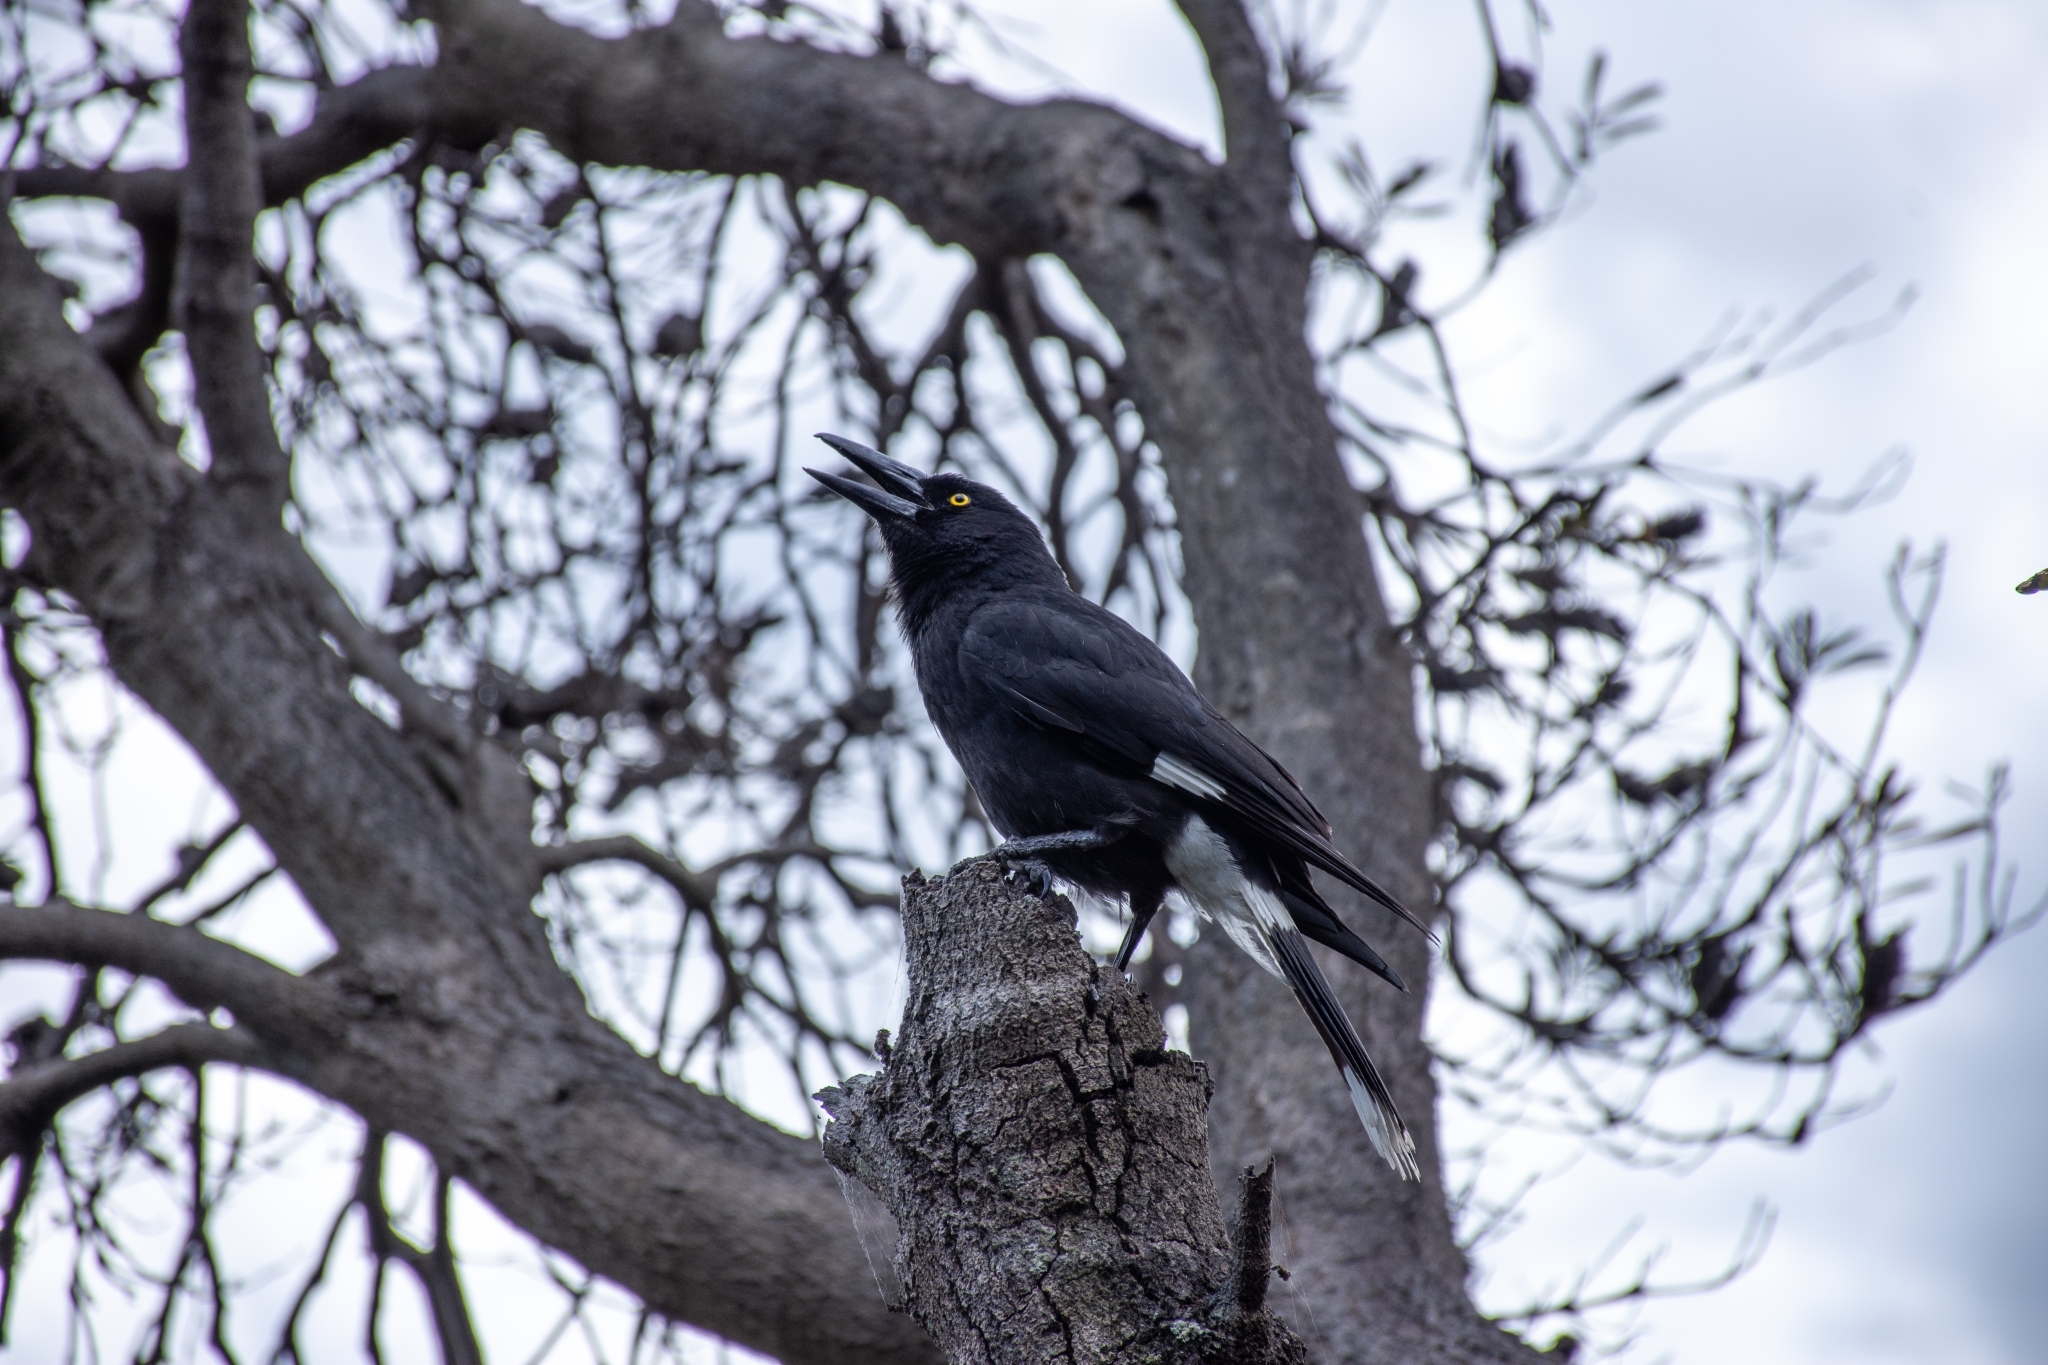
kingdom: Animalia
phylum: Chordata
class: Aves
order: Passeriformes
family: Cracticidae
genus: Strepera
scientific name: Strepera graculina
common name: Pied currawong
